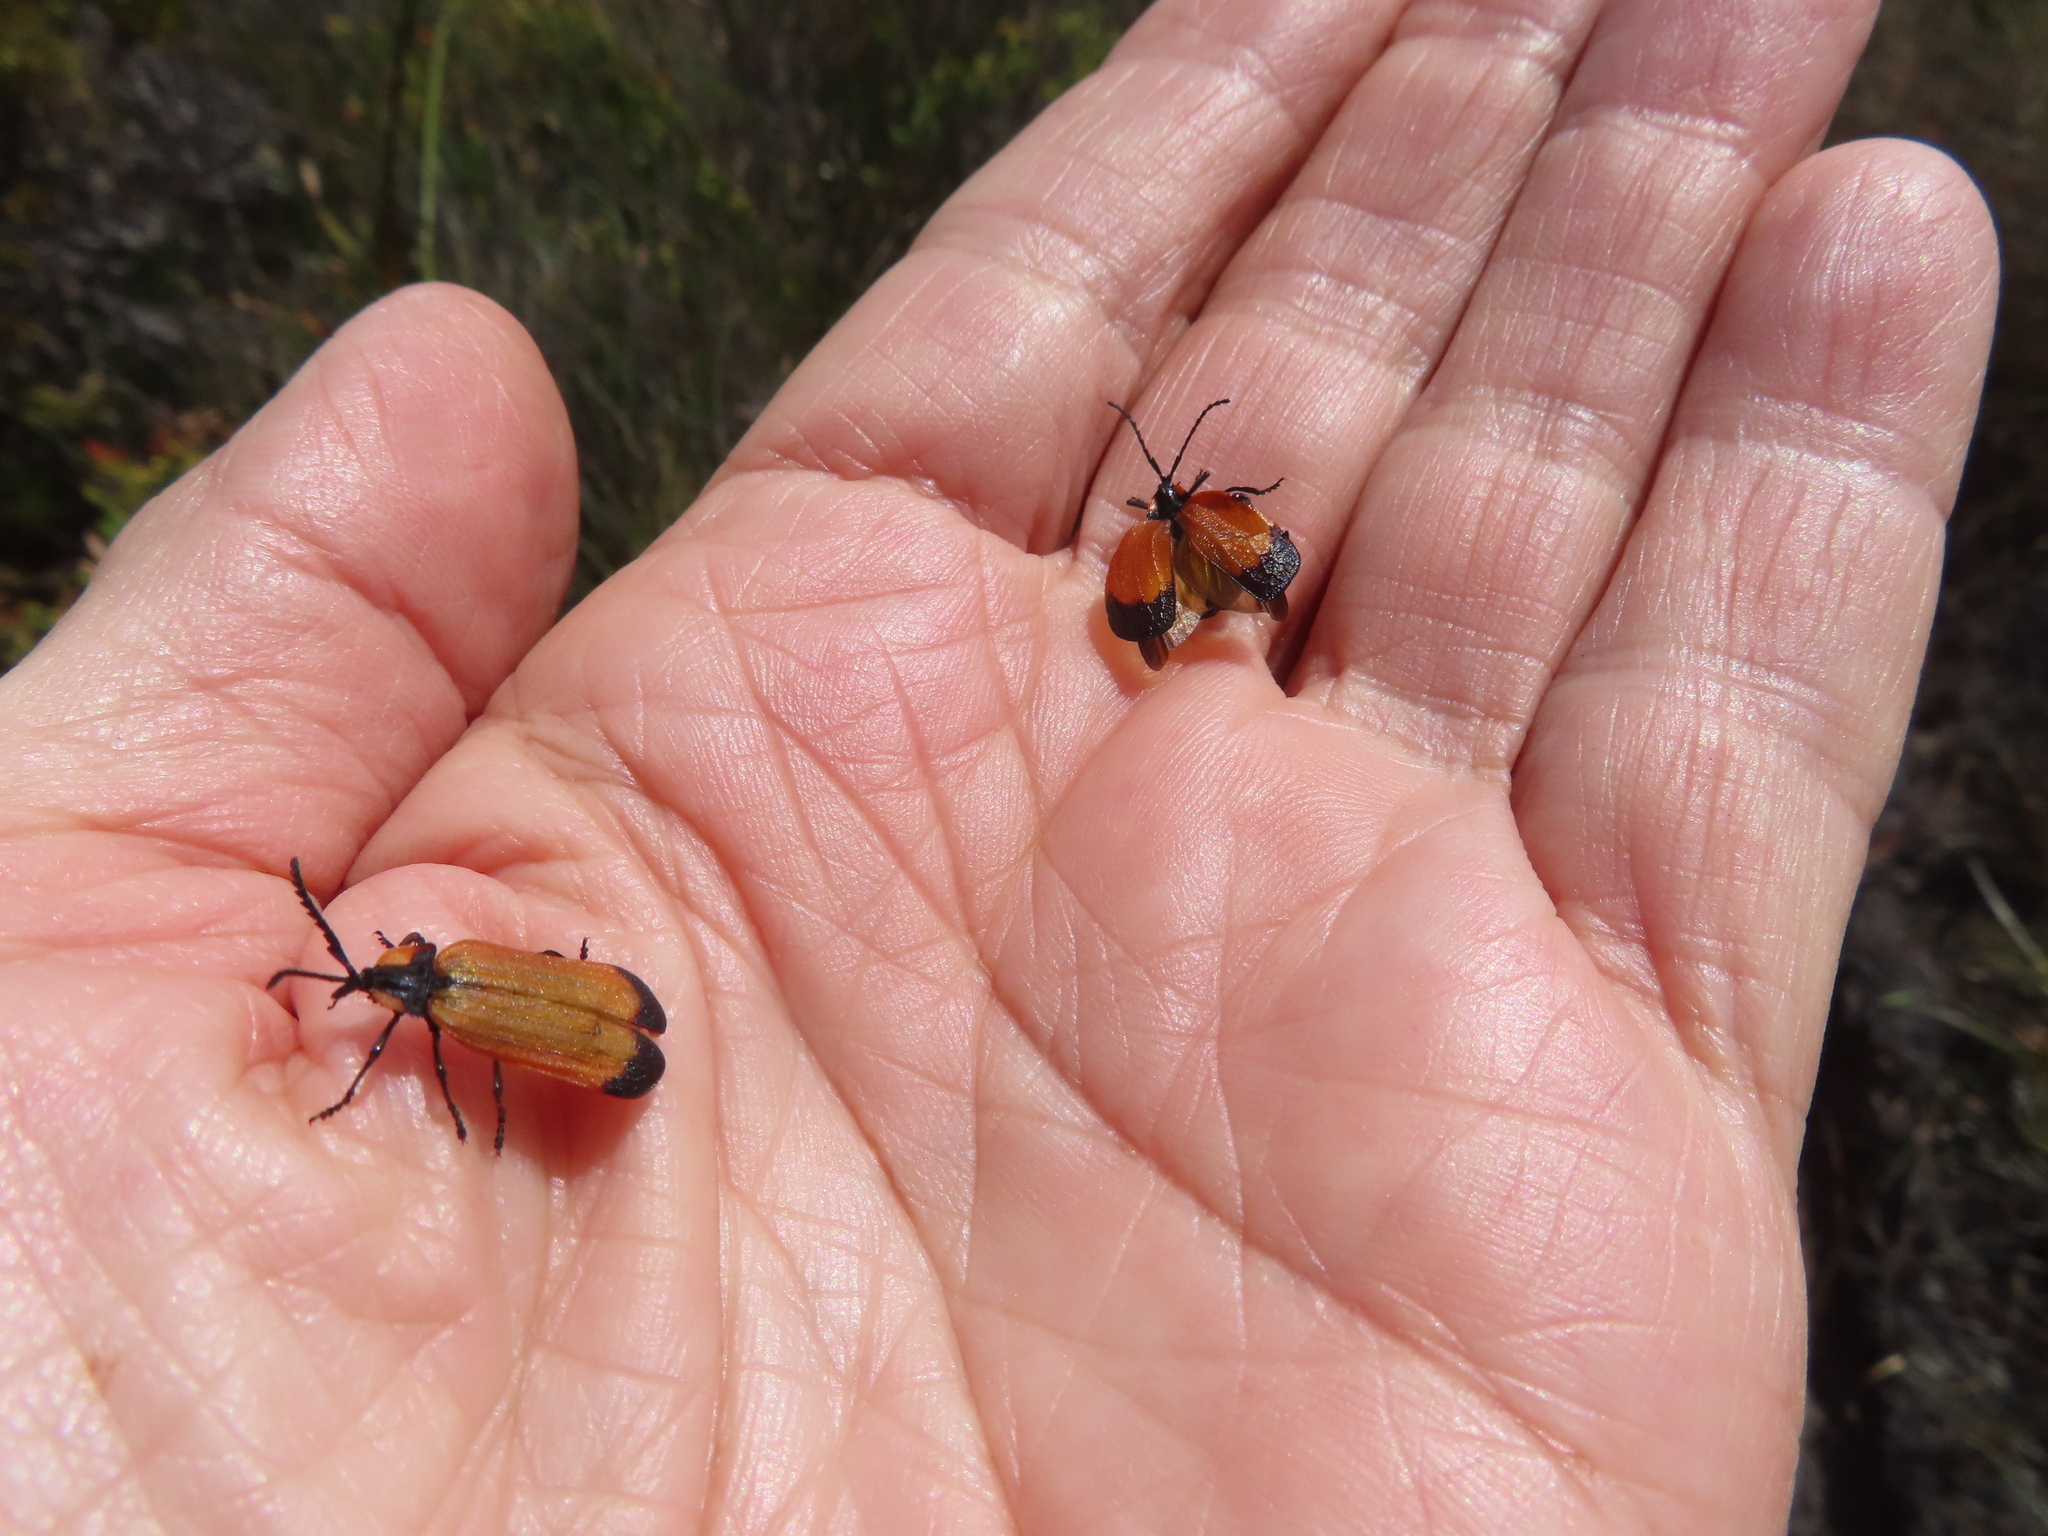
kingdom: Animalia
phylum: Arthropoda
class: Insecta
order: Coleoptera
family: Lycidae
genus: Lycus
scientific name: Lycus
